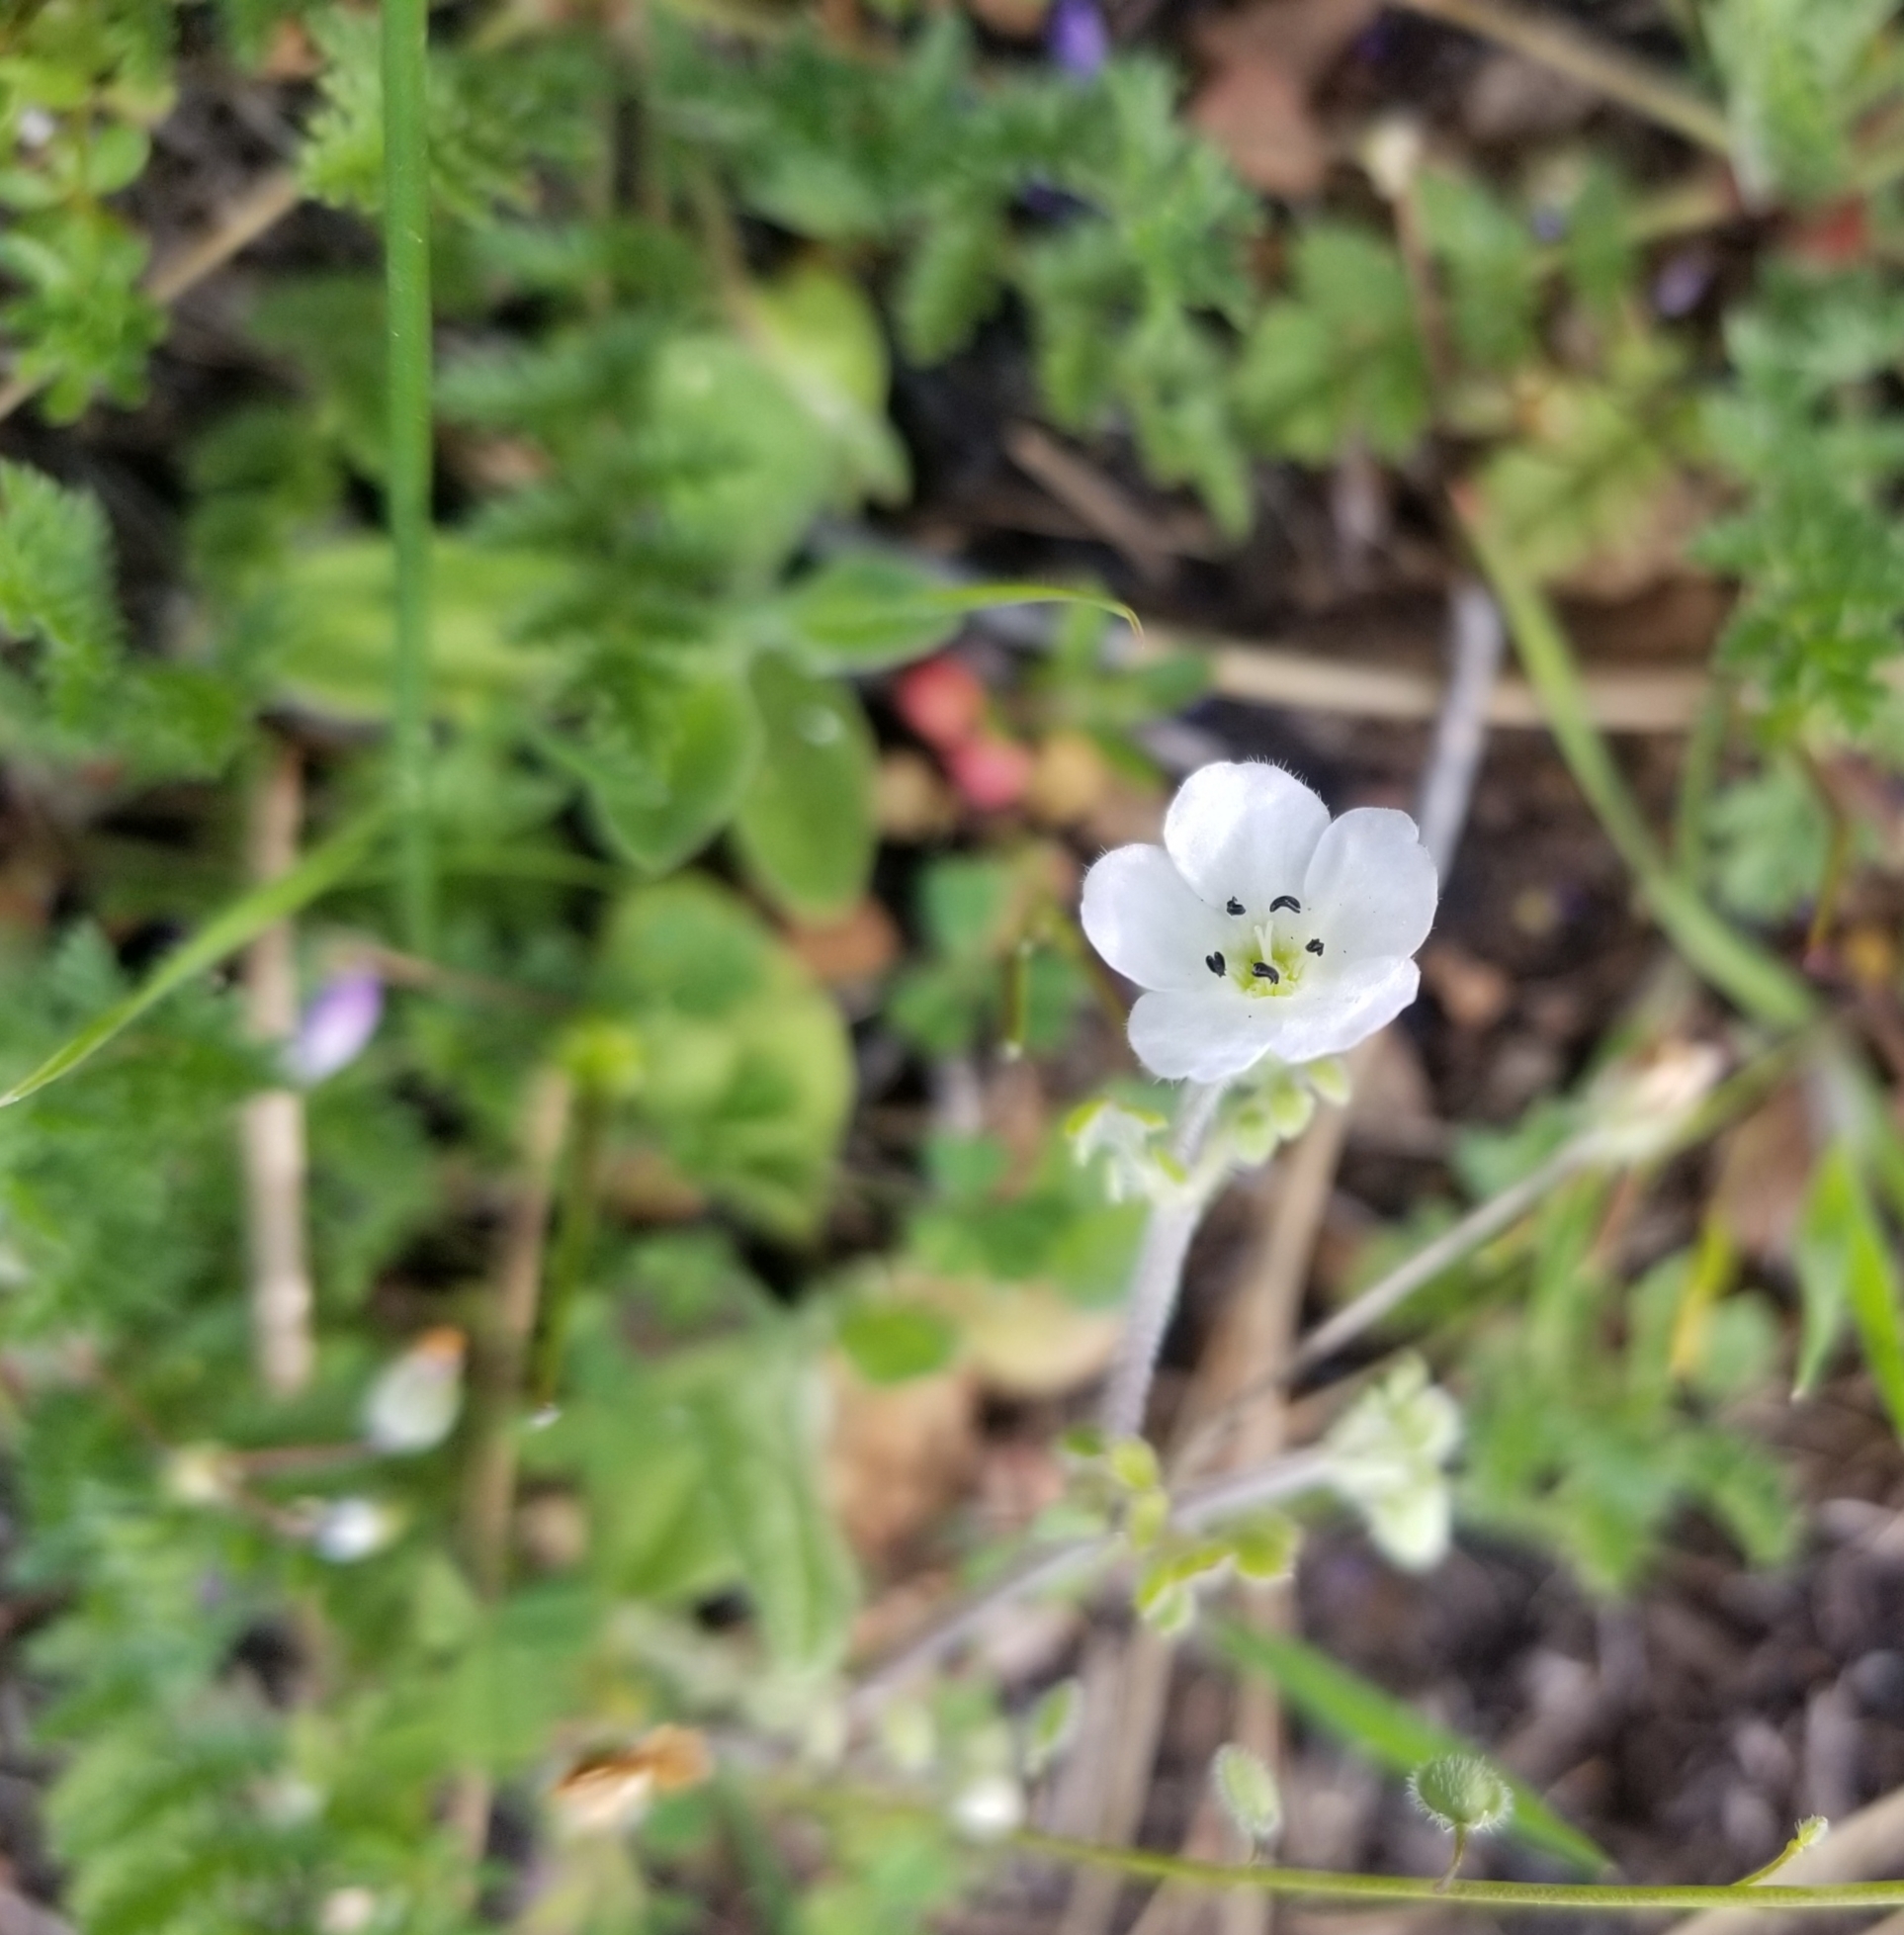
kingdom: Plantae
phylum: Tracheophyta
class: Magnoliopsida
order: Boraginales
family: Hydrophyllaceae
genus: Nemophila
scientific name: Nemophila heterophylla
